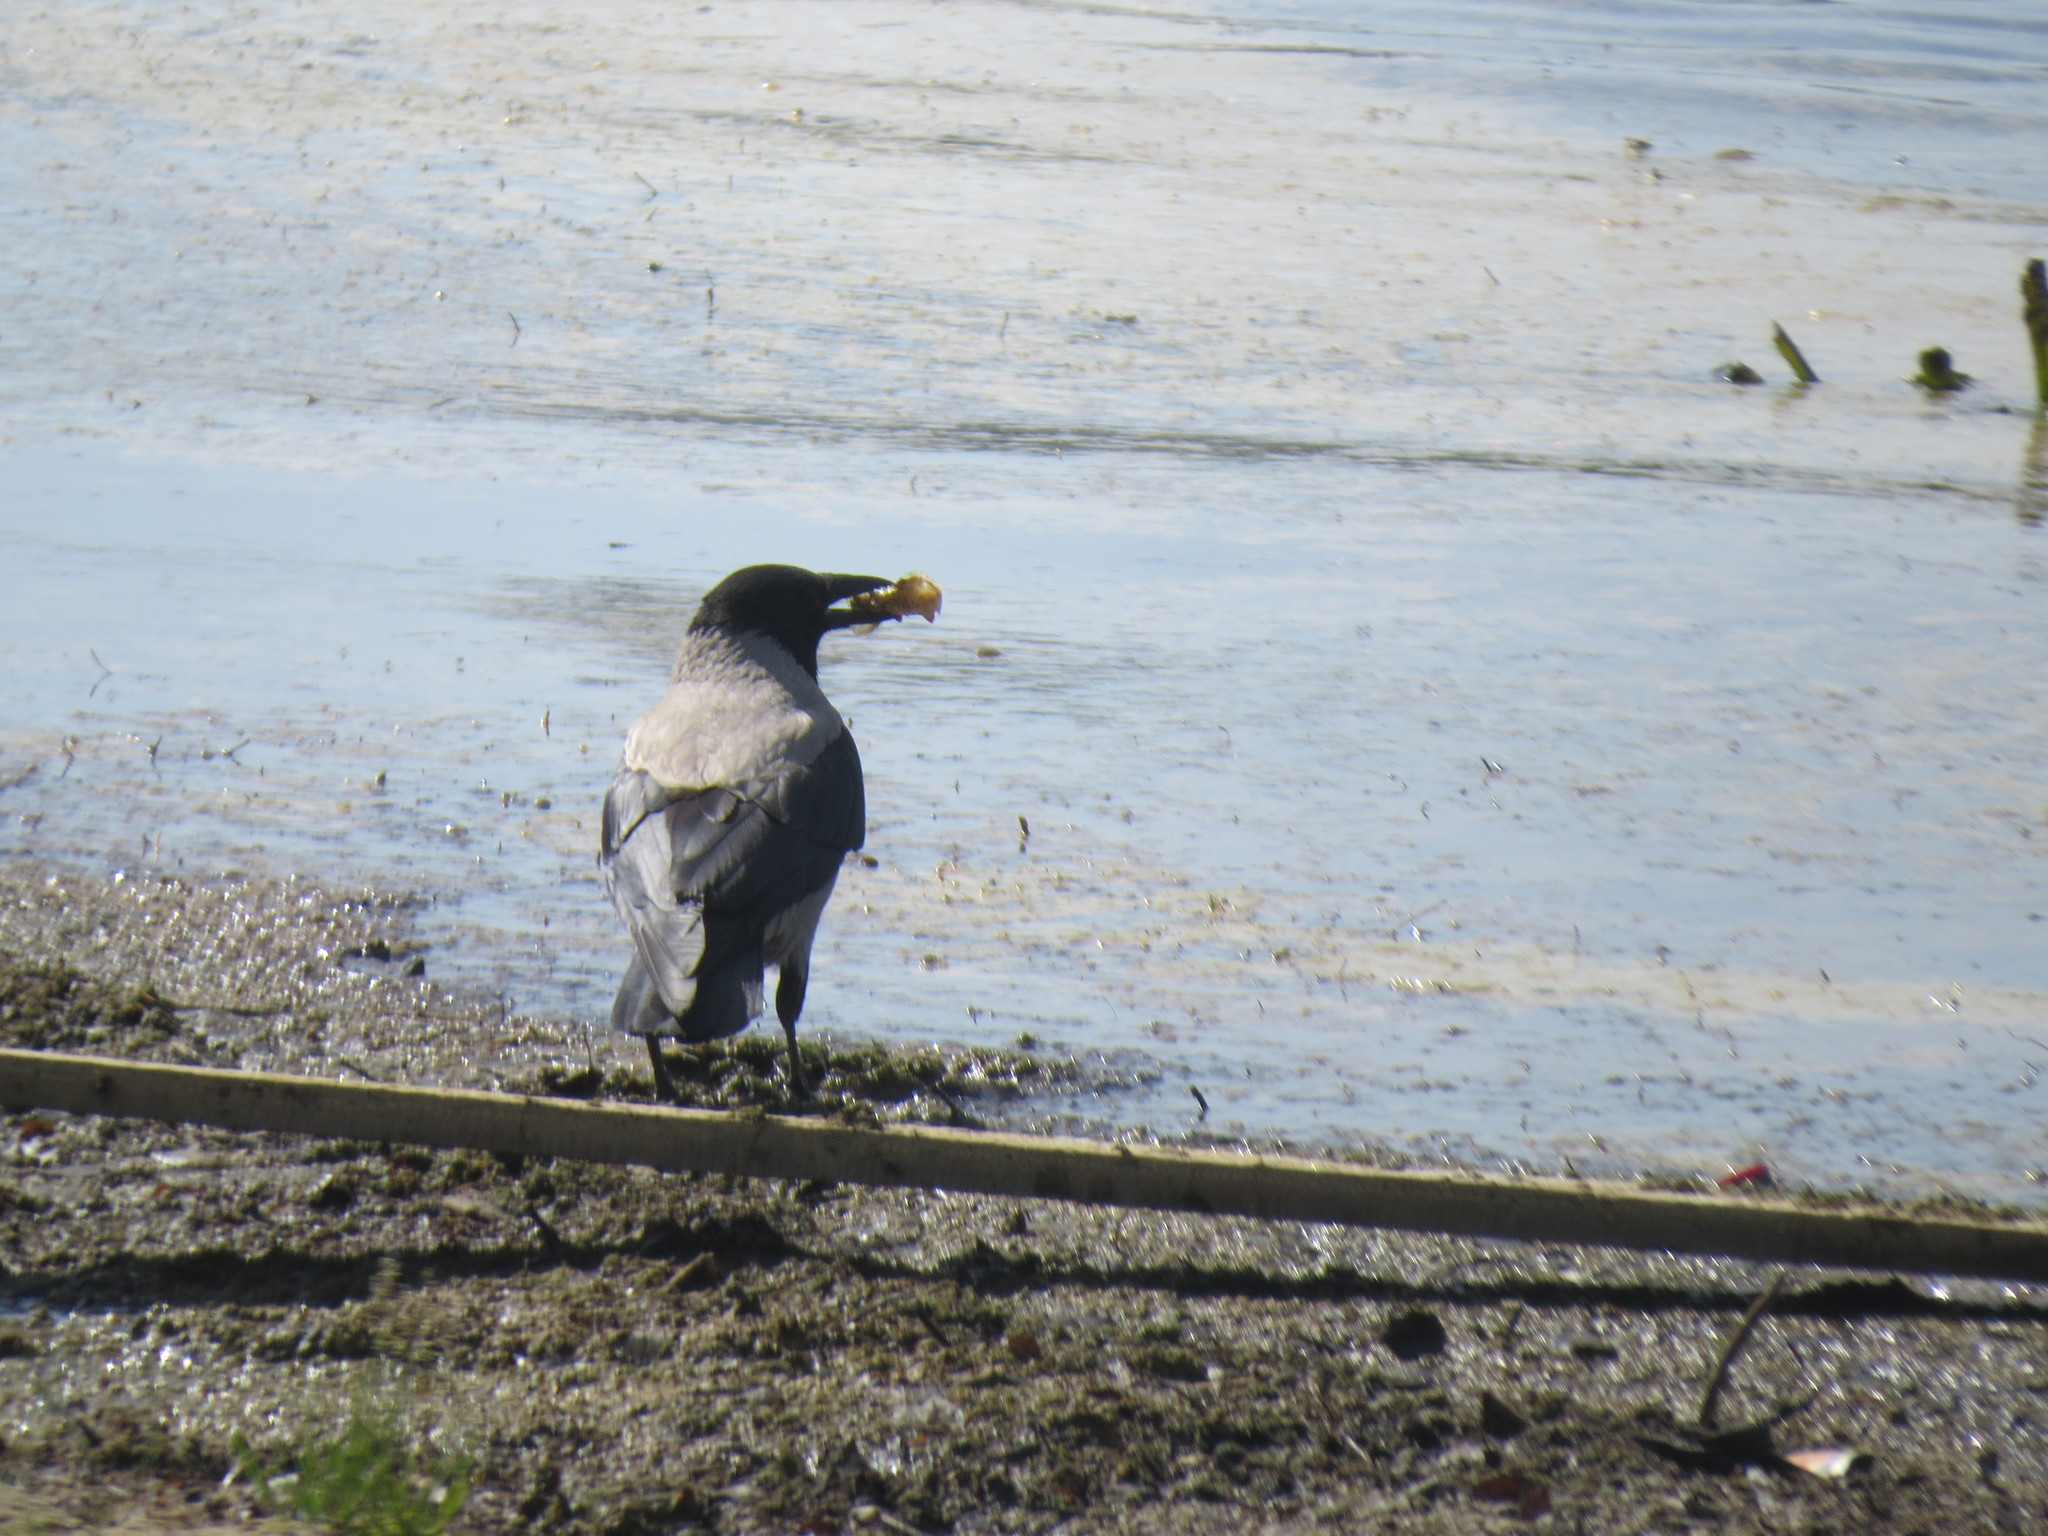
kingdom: Animalia
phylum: Chordata
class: Aves
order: Passeriformes
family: Corvidae
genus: Corvus
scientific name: Corvus cornix
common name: Hooded crow
